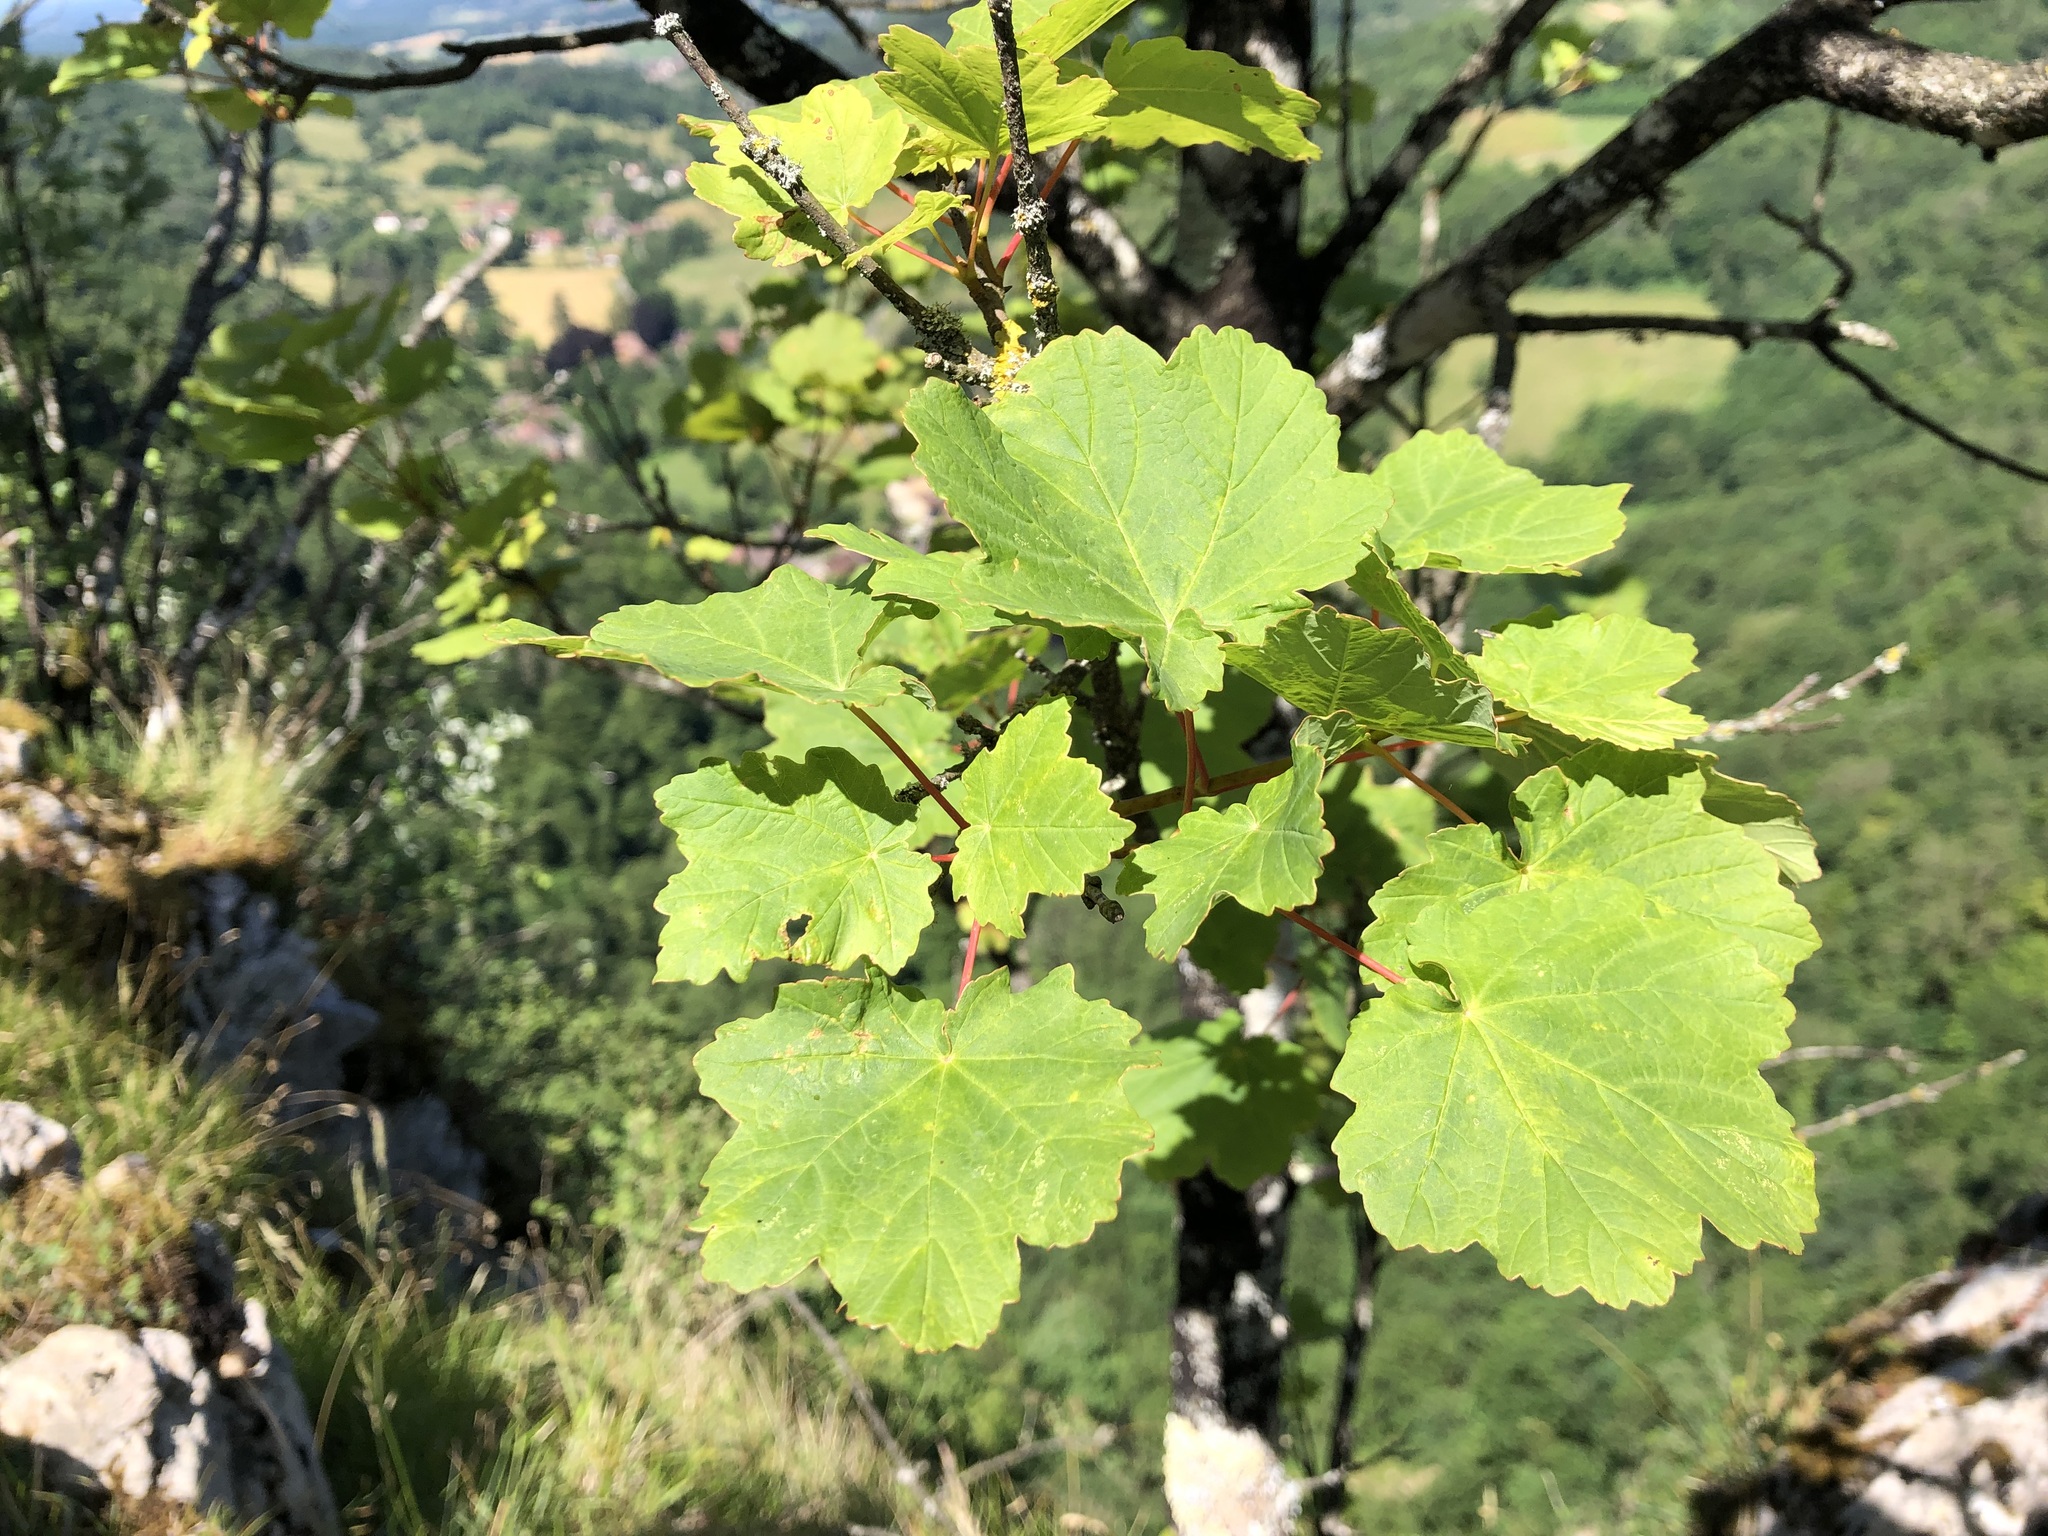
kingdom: Plantae
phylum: Tracheophyta
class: Magnoliopsida
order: Sapindales
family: Sapindaceae
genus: Acer
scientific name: Acer opalus
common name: Italian maple
